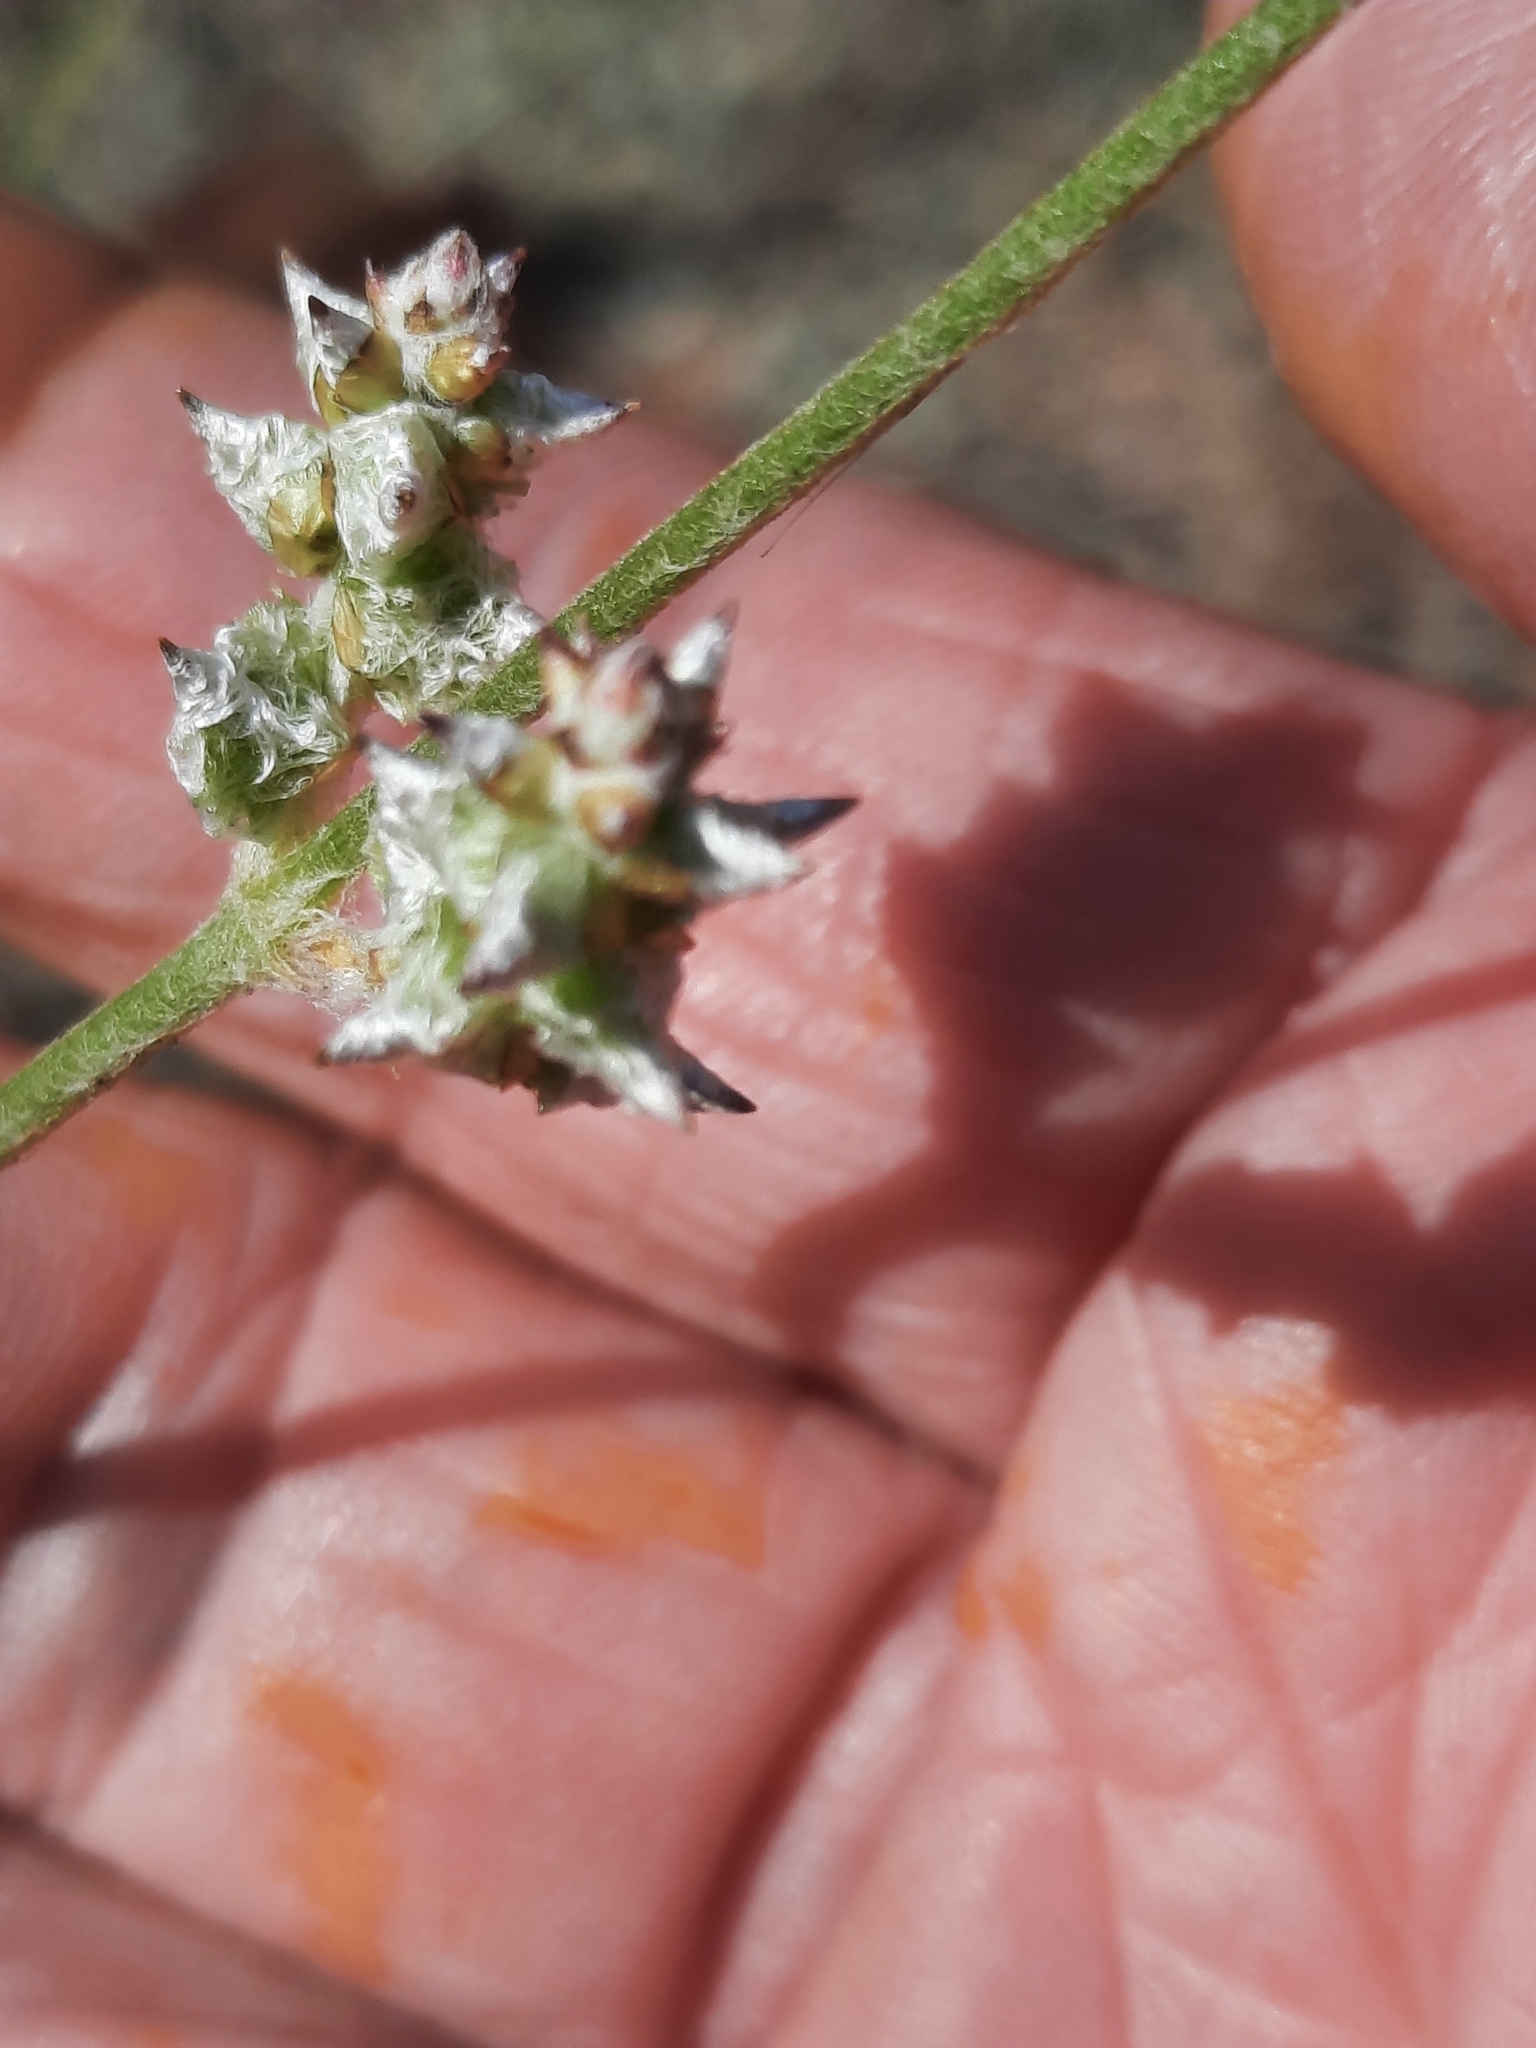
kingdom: Plantae
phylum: Tracheophyta
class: Magnoliopsida
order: Caryophyllales
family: Amaranthaceae
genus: Froelichia
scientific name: Froelichia gracilis
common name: Slender cottonweed
